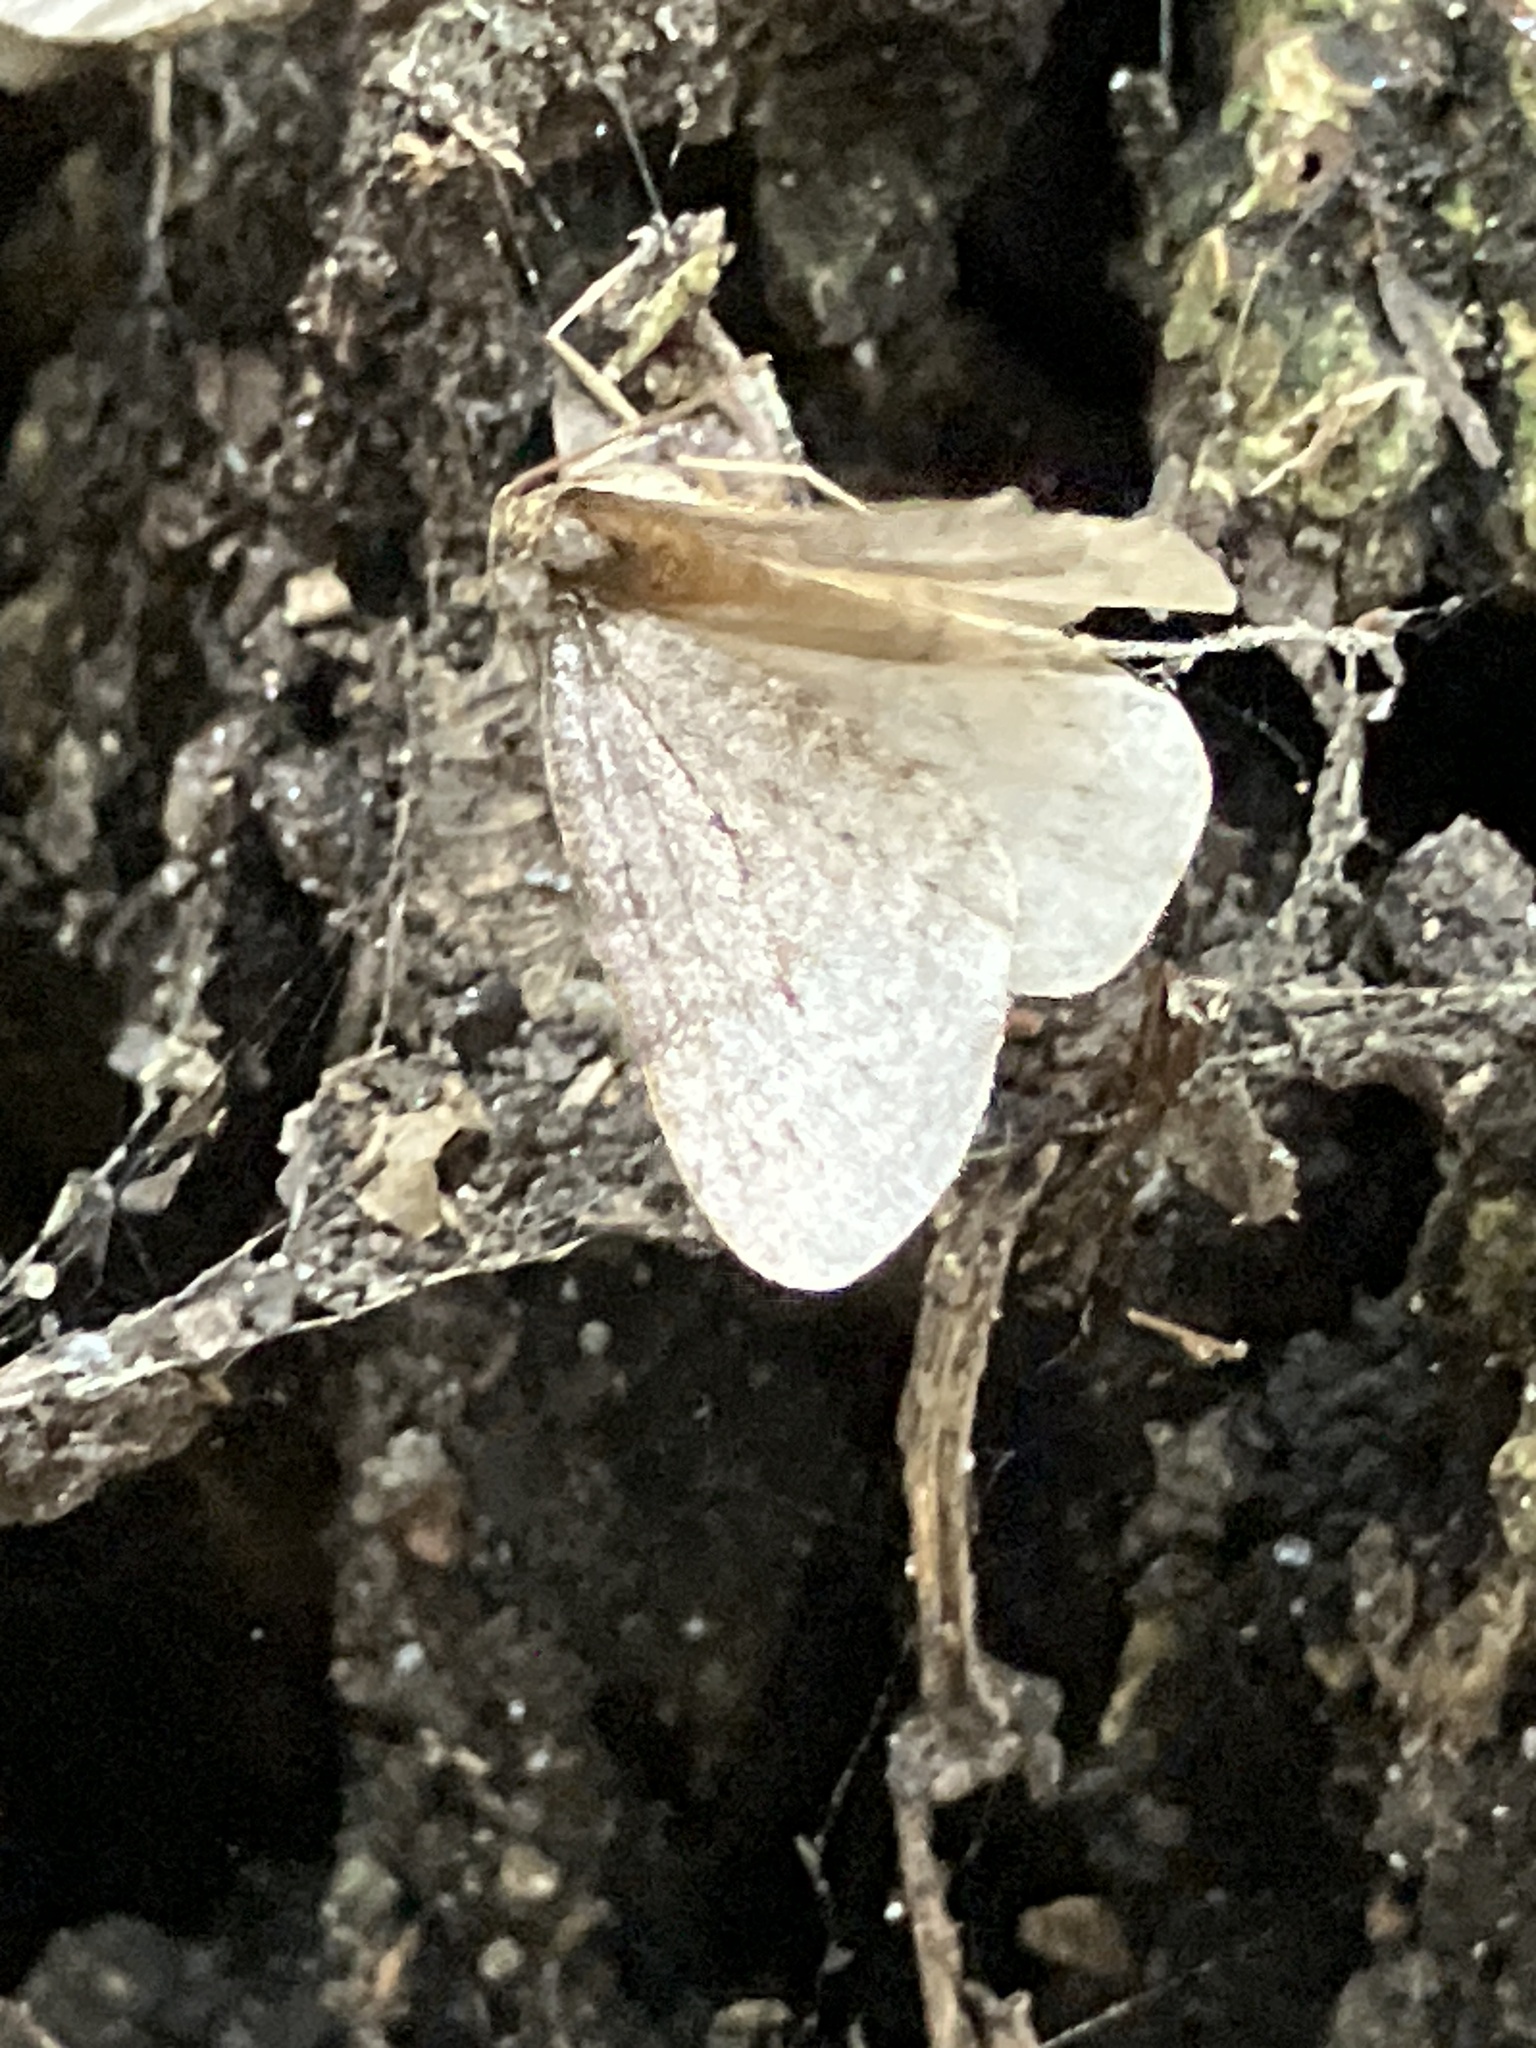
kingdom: Animalia
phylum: Arthropoda
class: Insecta
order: Lepidoptera
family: Geometridae
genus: Operophtera
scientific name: Operophtera brumata
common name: Winter moth
